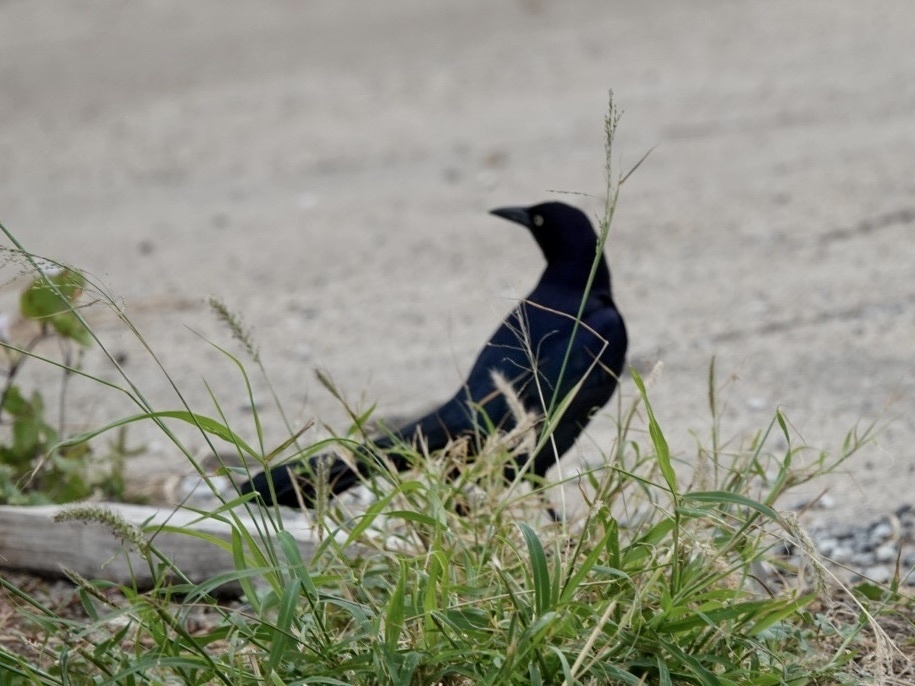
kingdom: Animalia
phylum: Chordata
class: Aves
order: Passeriformes
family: Icteridae
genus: Quiscalus
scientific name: Quiscalus mexicanus
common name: Great-tailed grackle
